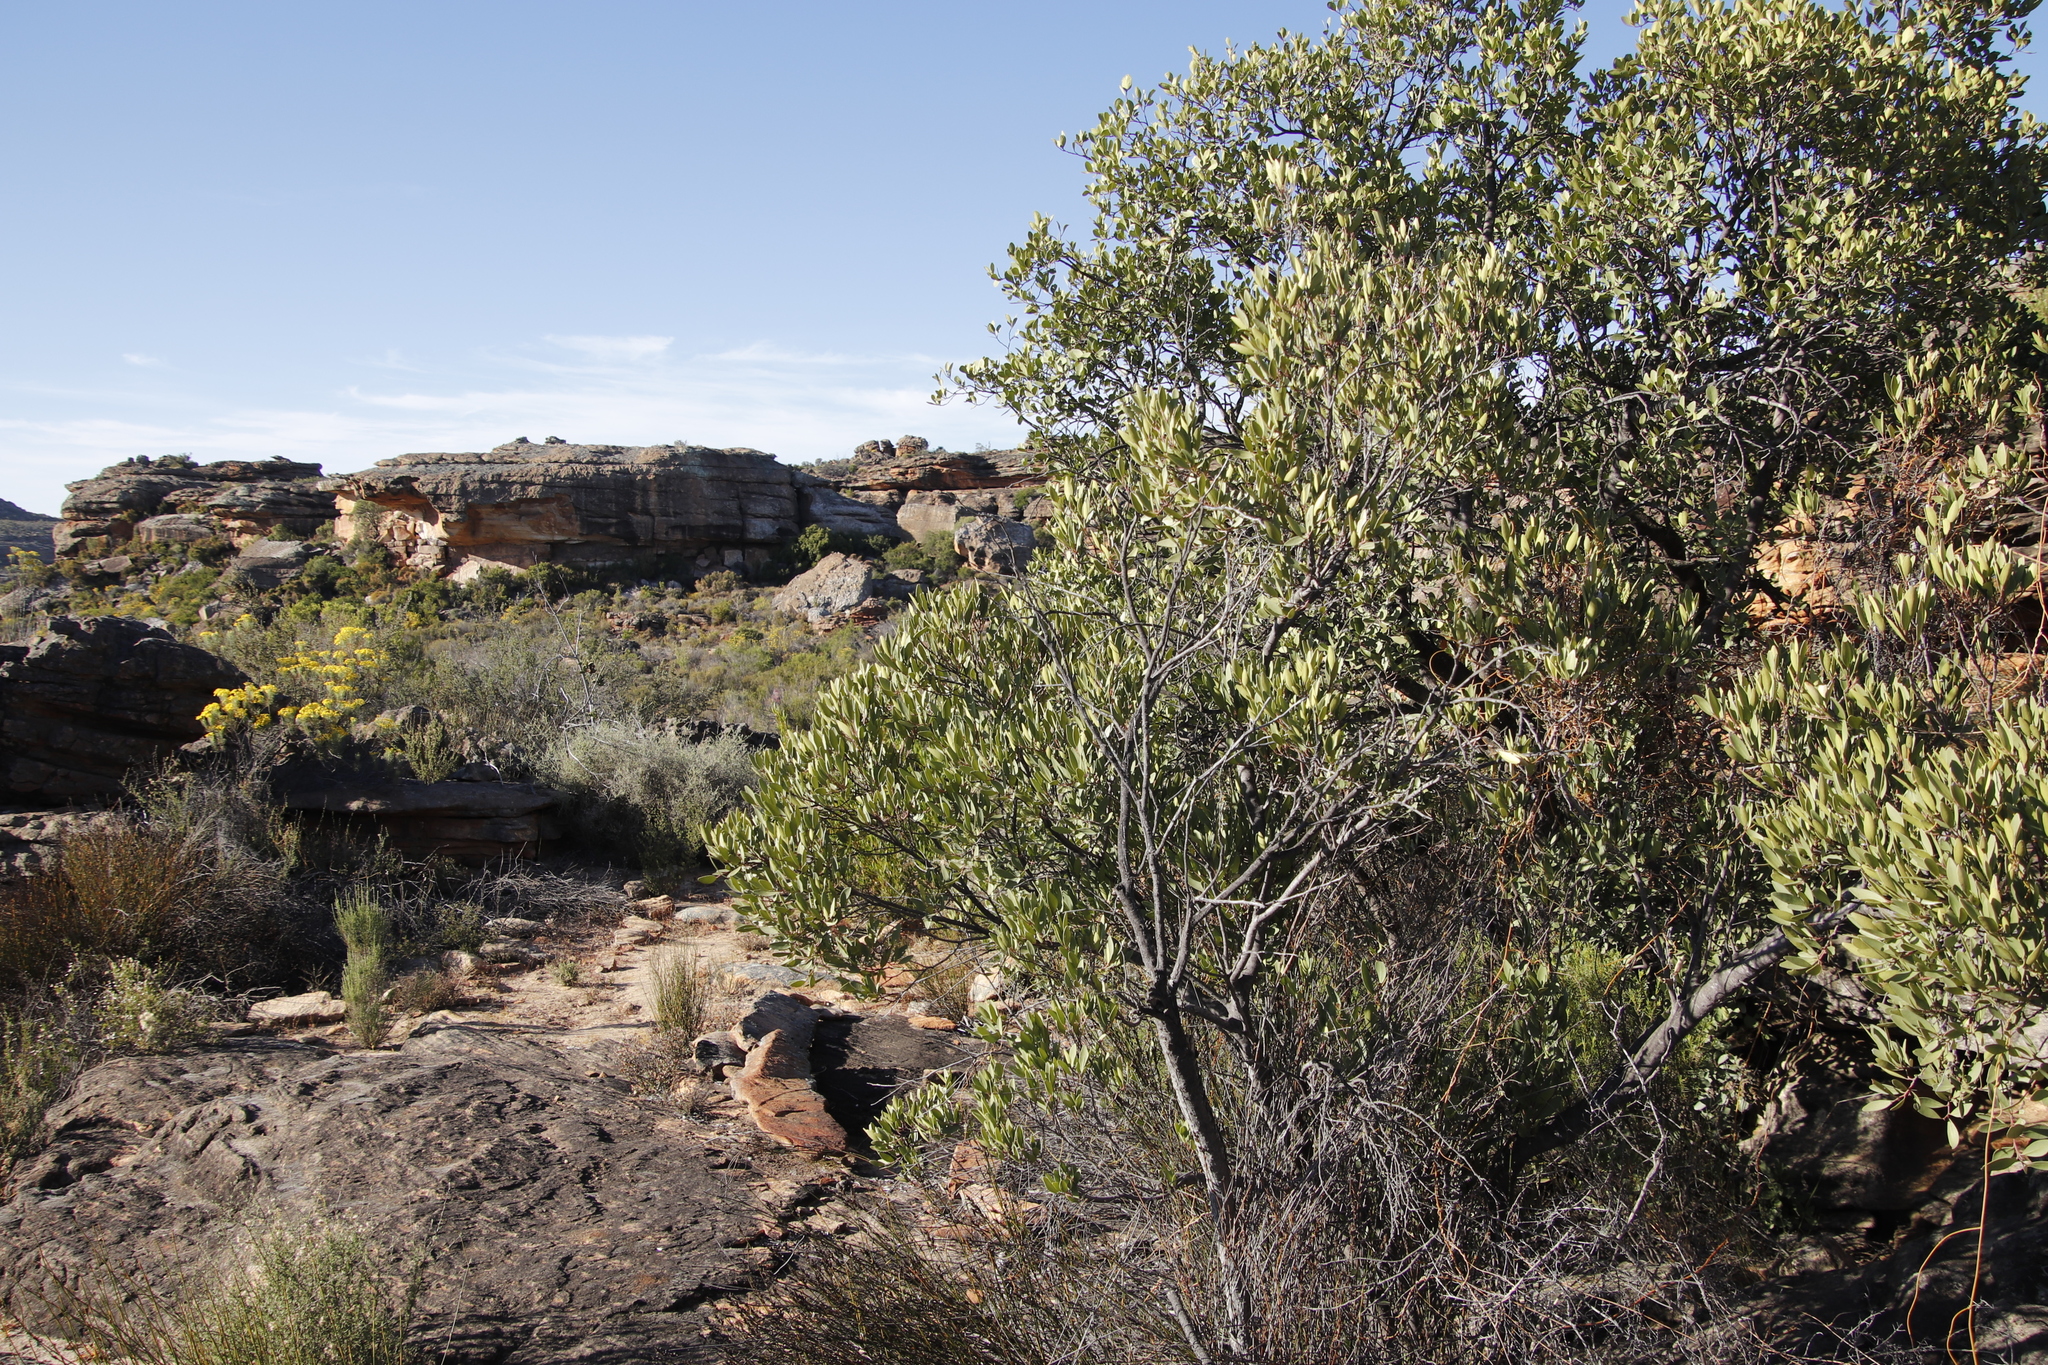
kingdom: Plantae
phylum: Tracheophyta
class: Magnoliopsida
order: Lamiales
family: Oleaceae
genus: Olea
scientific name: Olea europaea
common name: Olive
